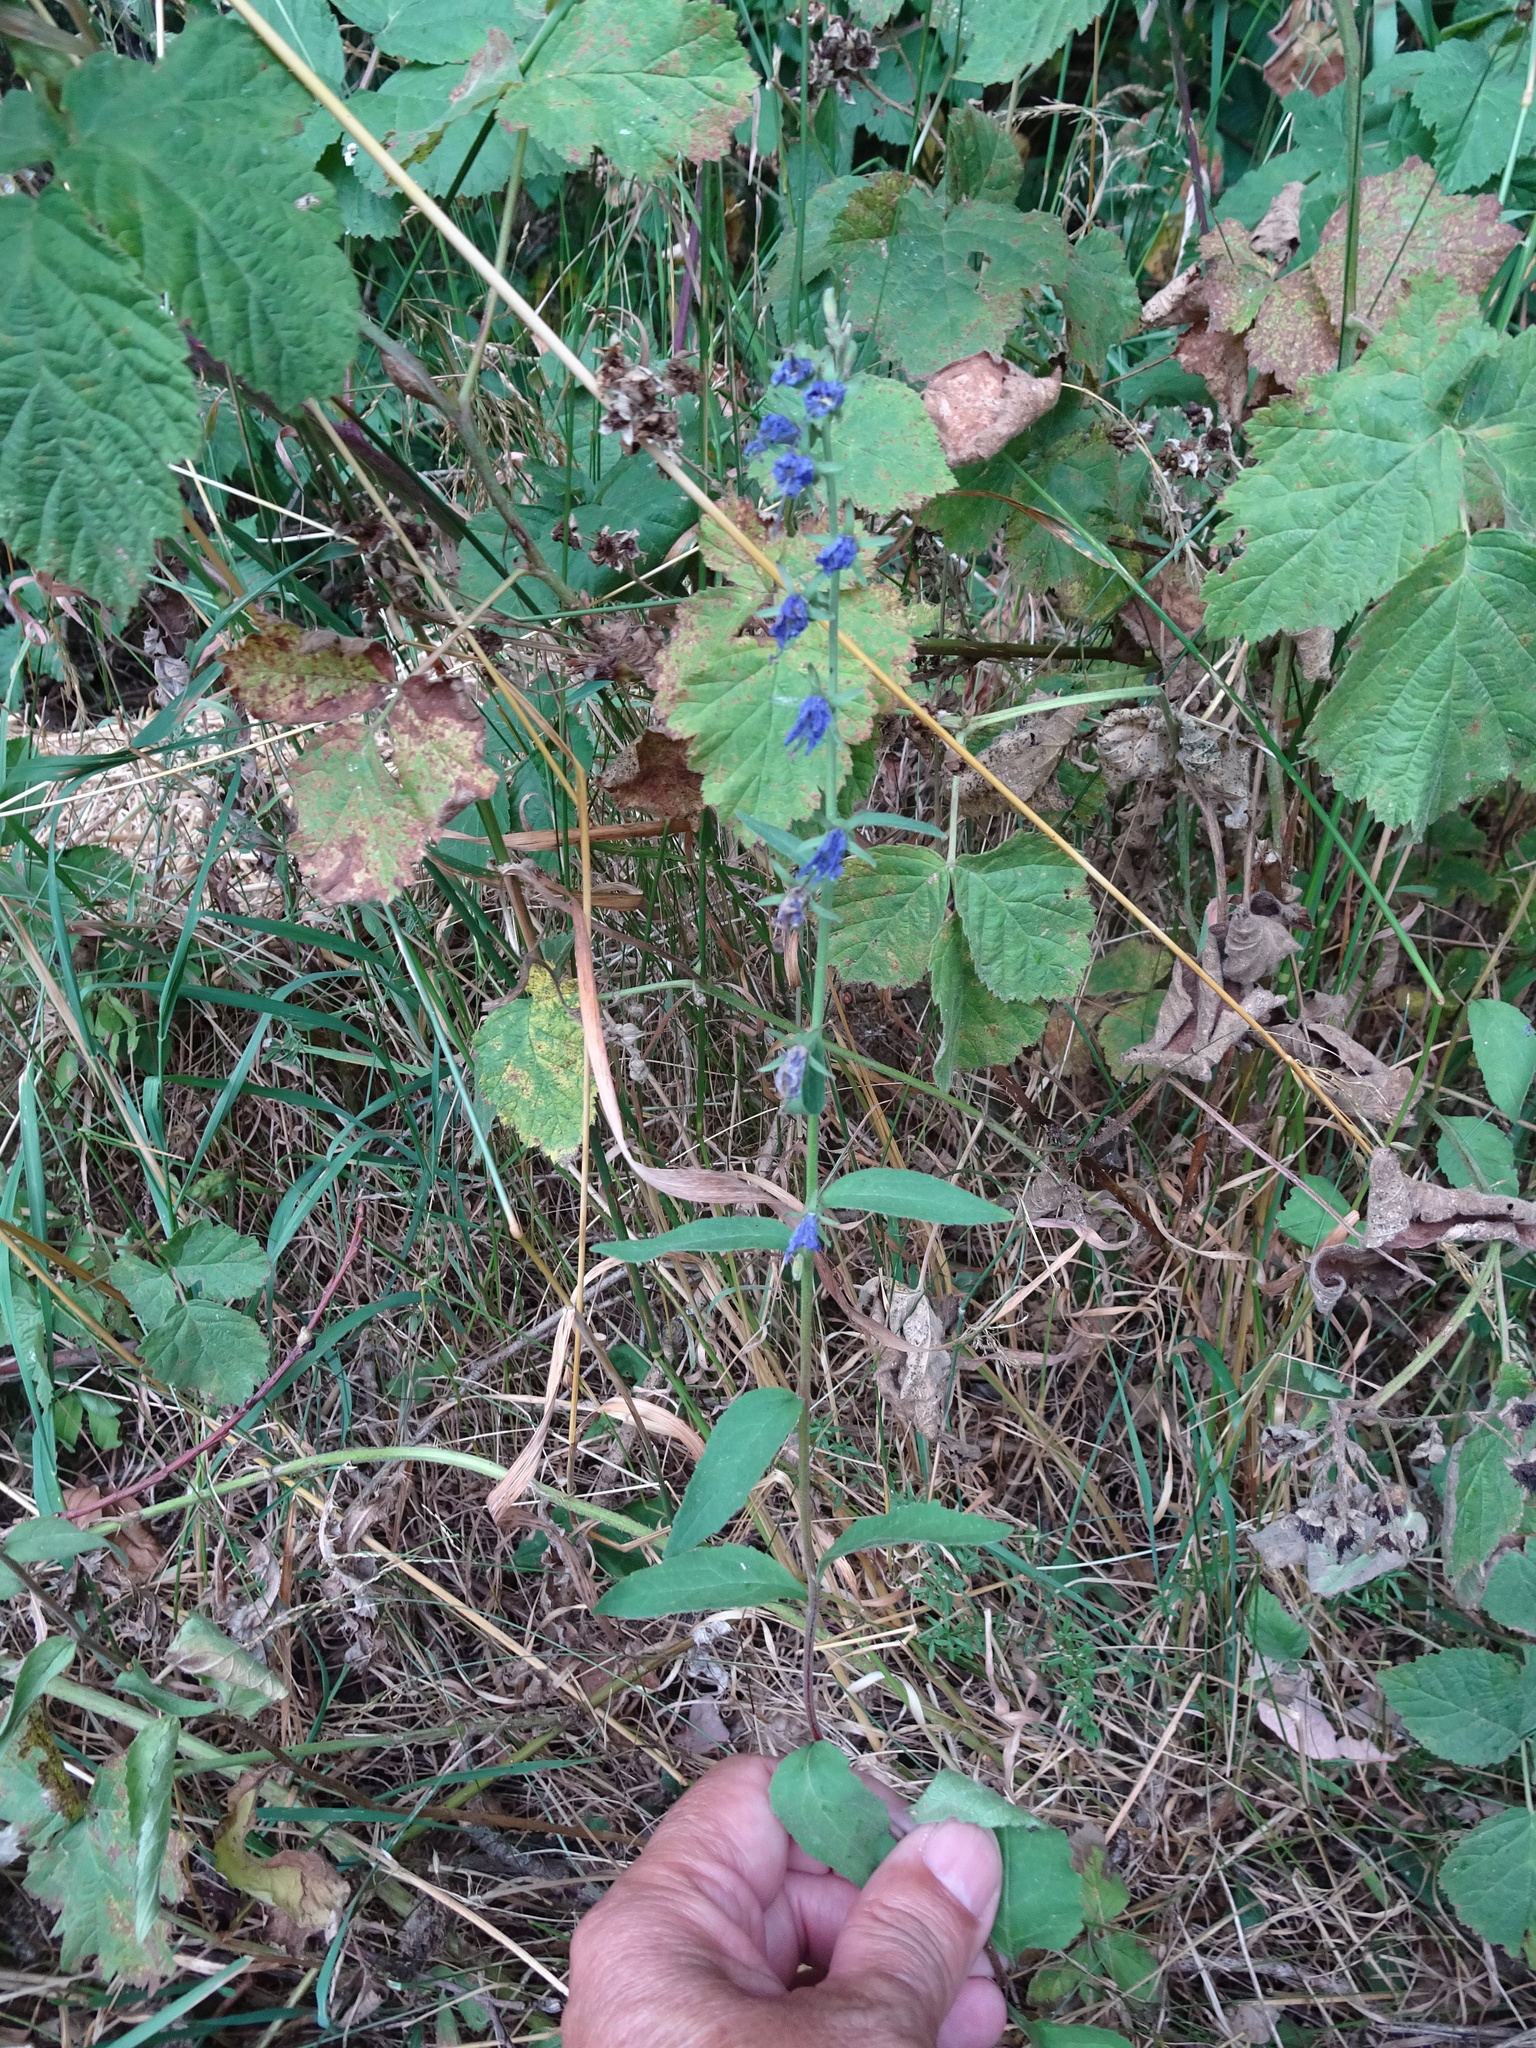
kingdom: Plantae
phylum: Tracheophyta
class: Magnoliopsida
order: Asterales
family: Campanulaceae
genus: Campanula
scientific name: Campanula rapunculoides
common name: Creeping bellflower
